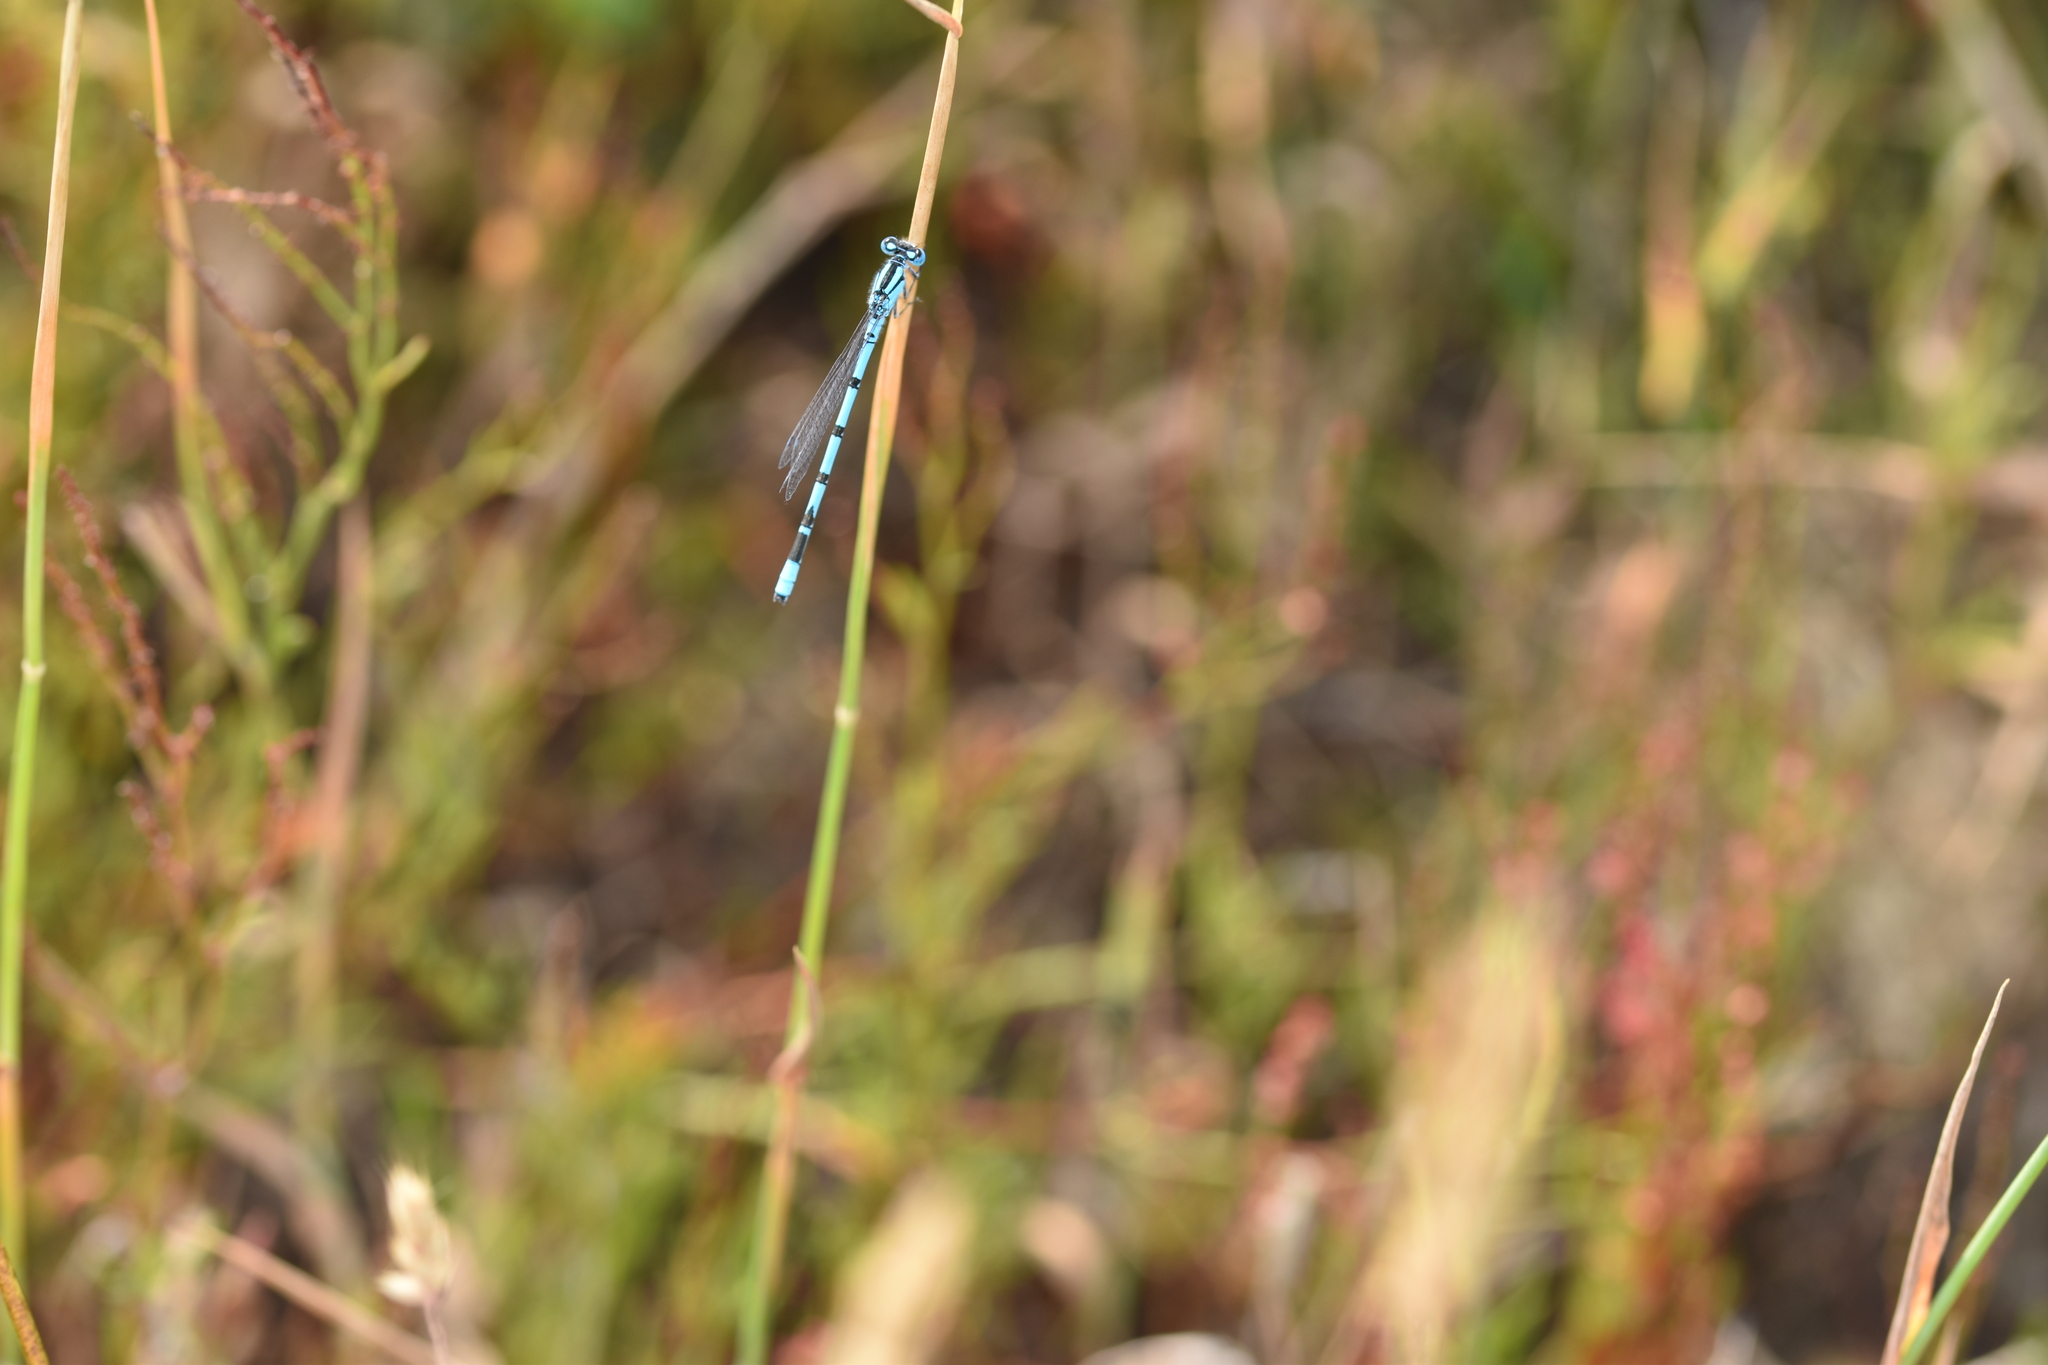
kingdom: Animalia
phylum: Arthropoda
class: Insecta
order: Odonata
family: Coenagrionidae
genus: Enallagma
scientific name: Enallagma cyathigerum
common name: Common blue damselfly
